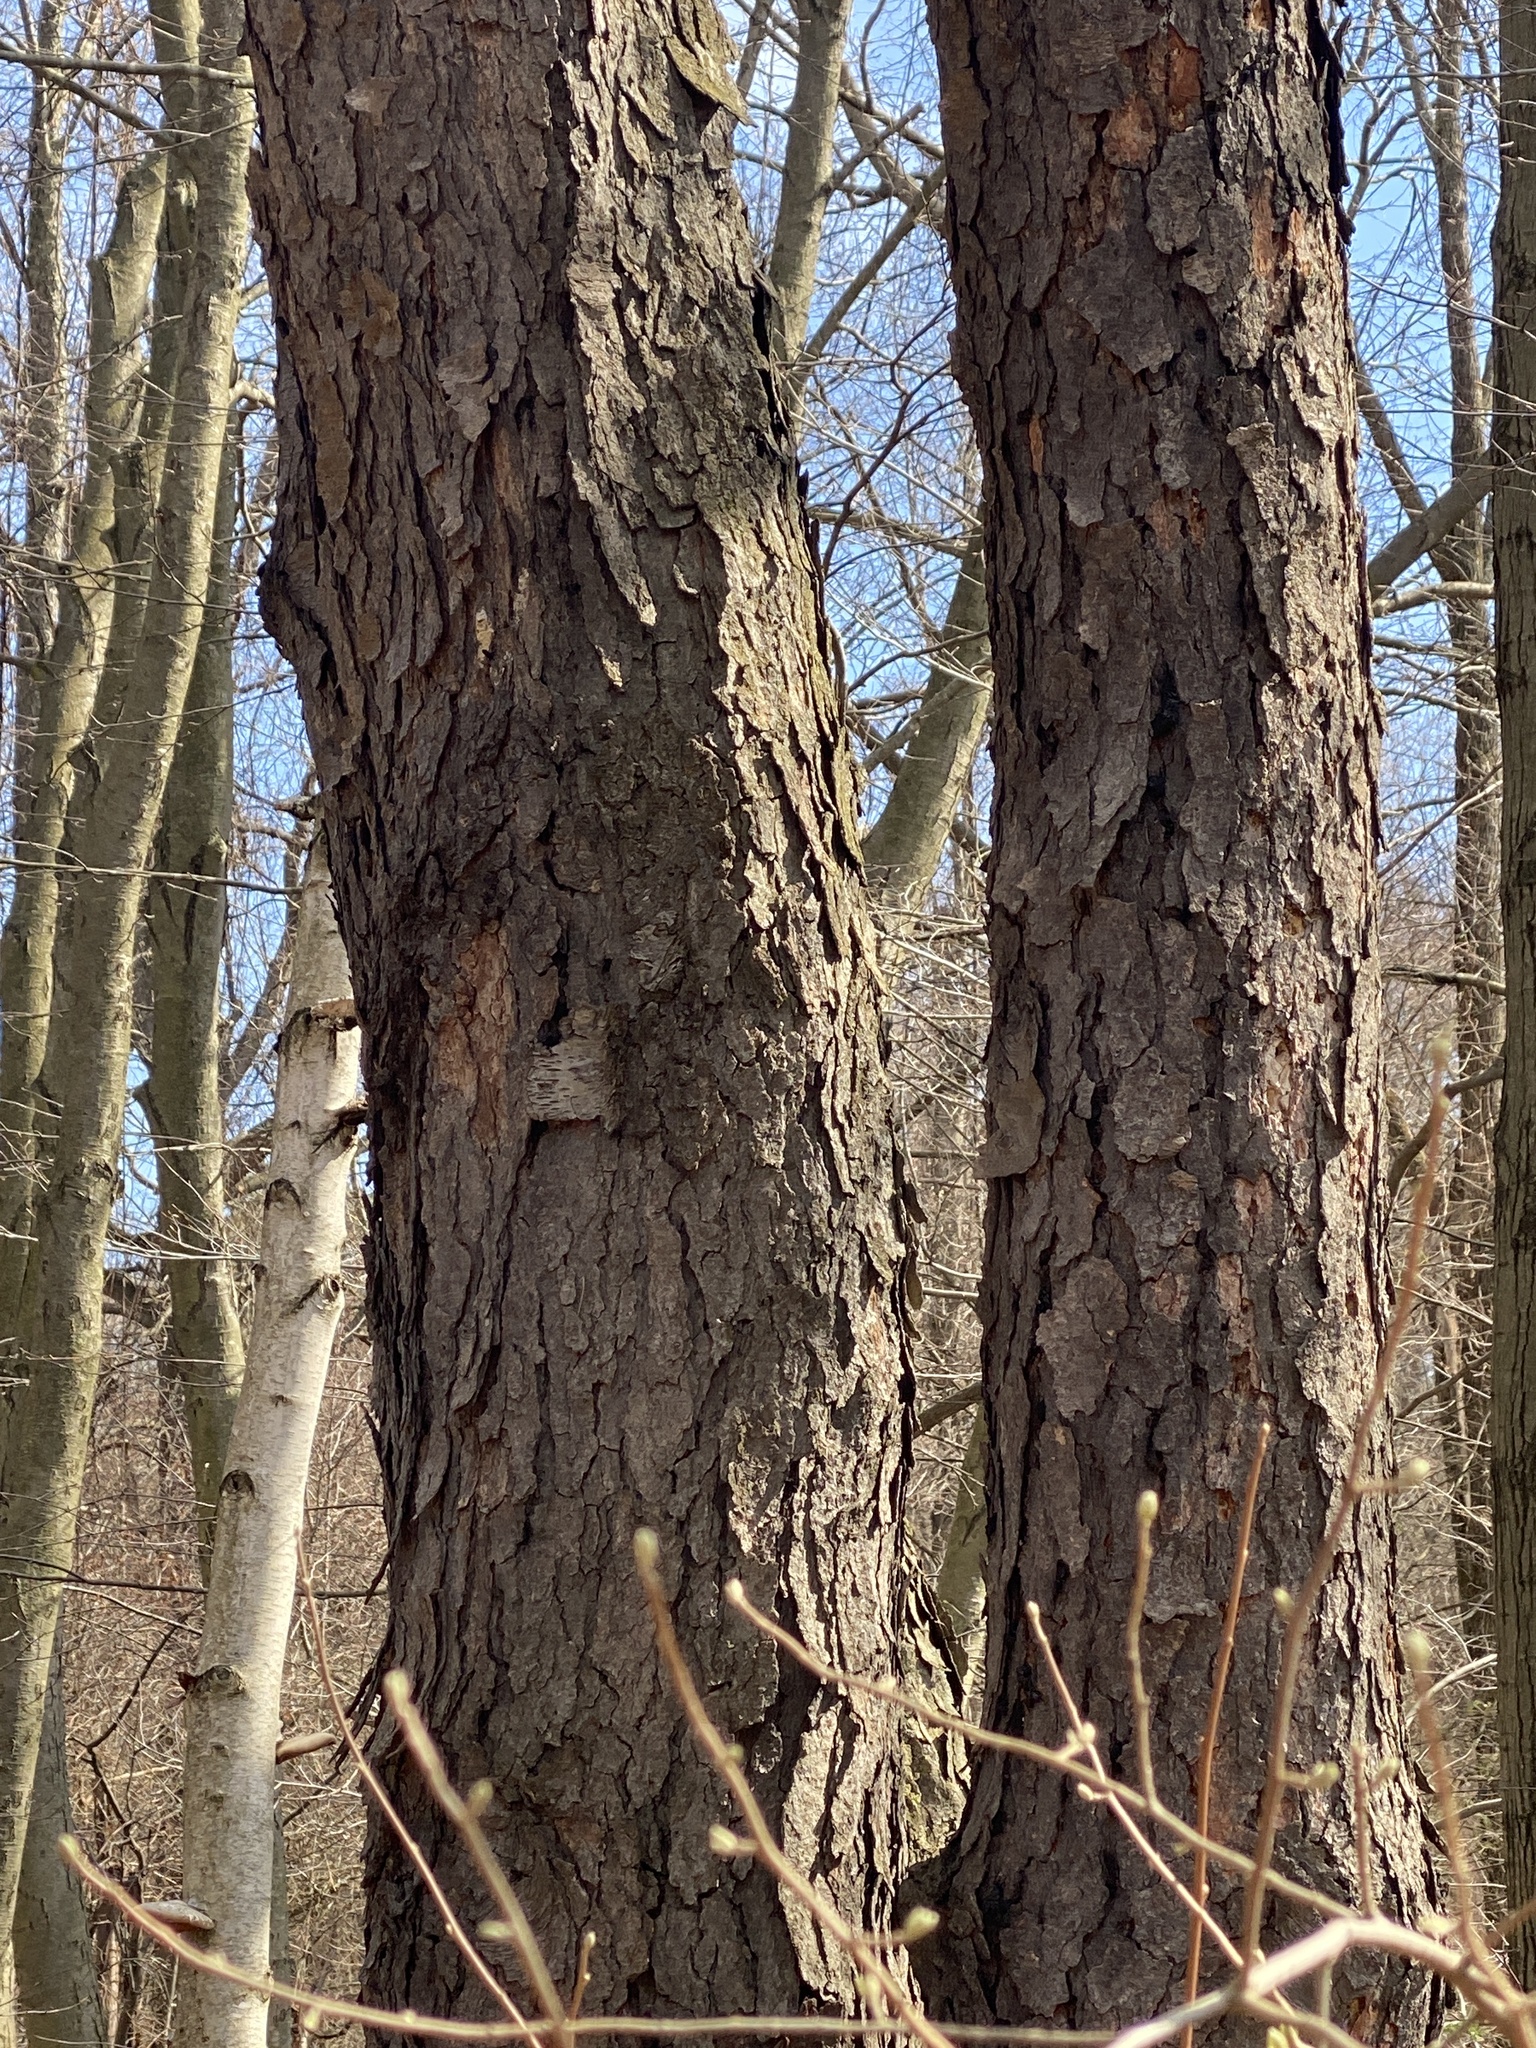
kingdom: Plantae
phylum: Tracheophyta
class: Magnoliopsida
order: Rosales
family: Rosaceae
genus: Prunus
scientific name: Prunus serotina
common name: Black cherry
